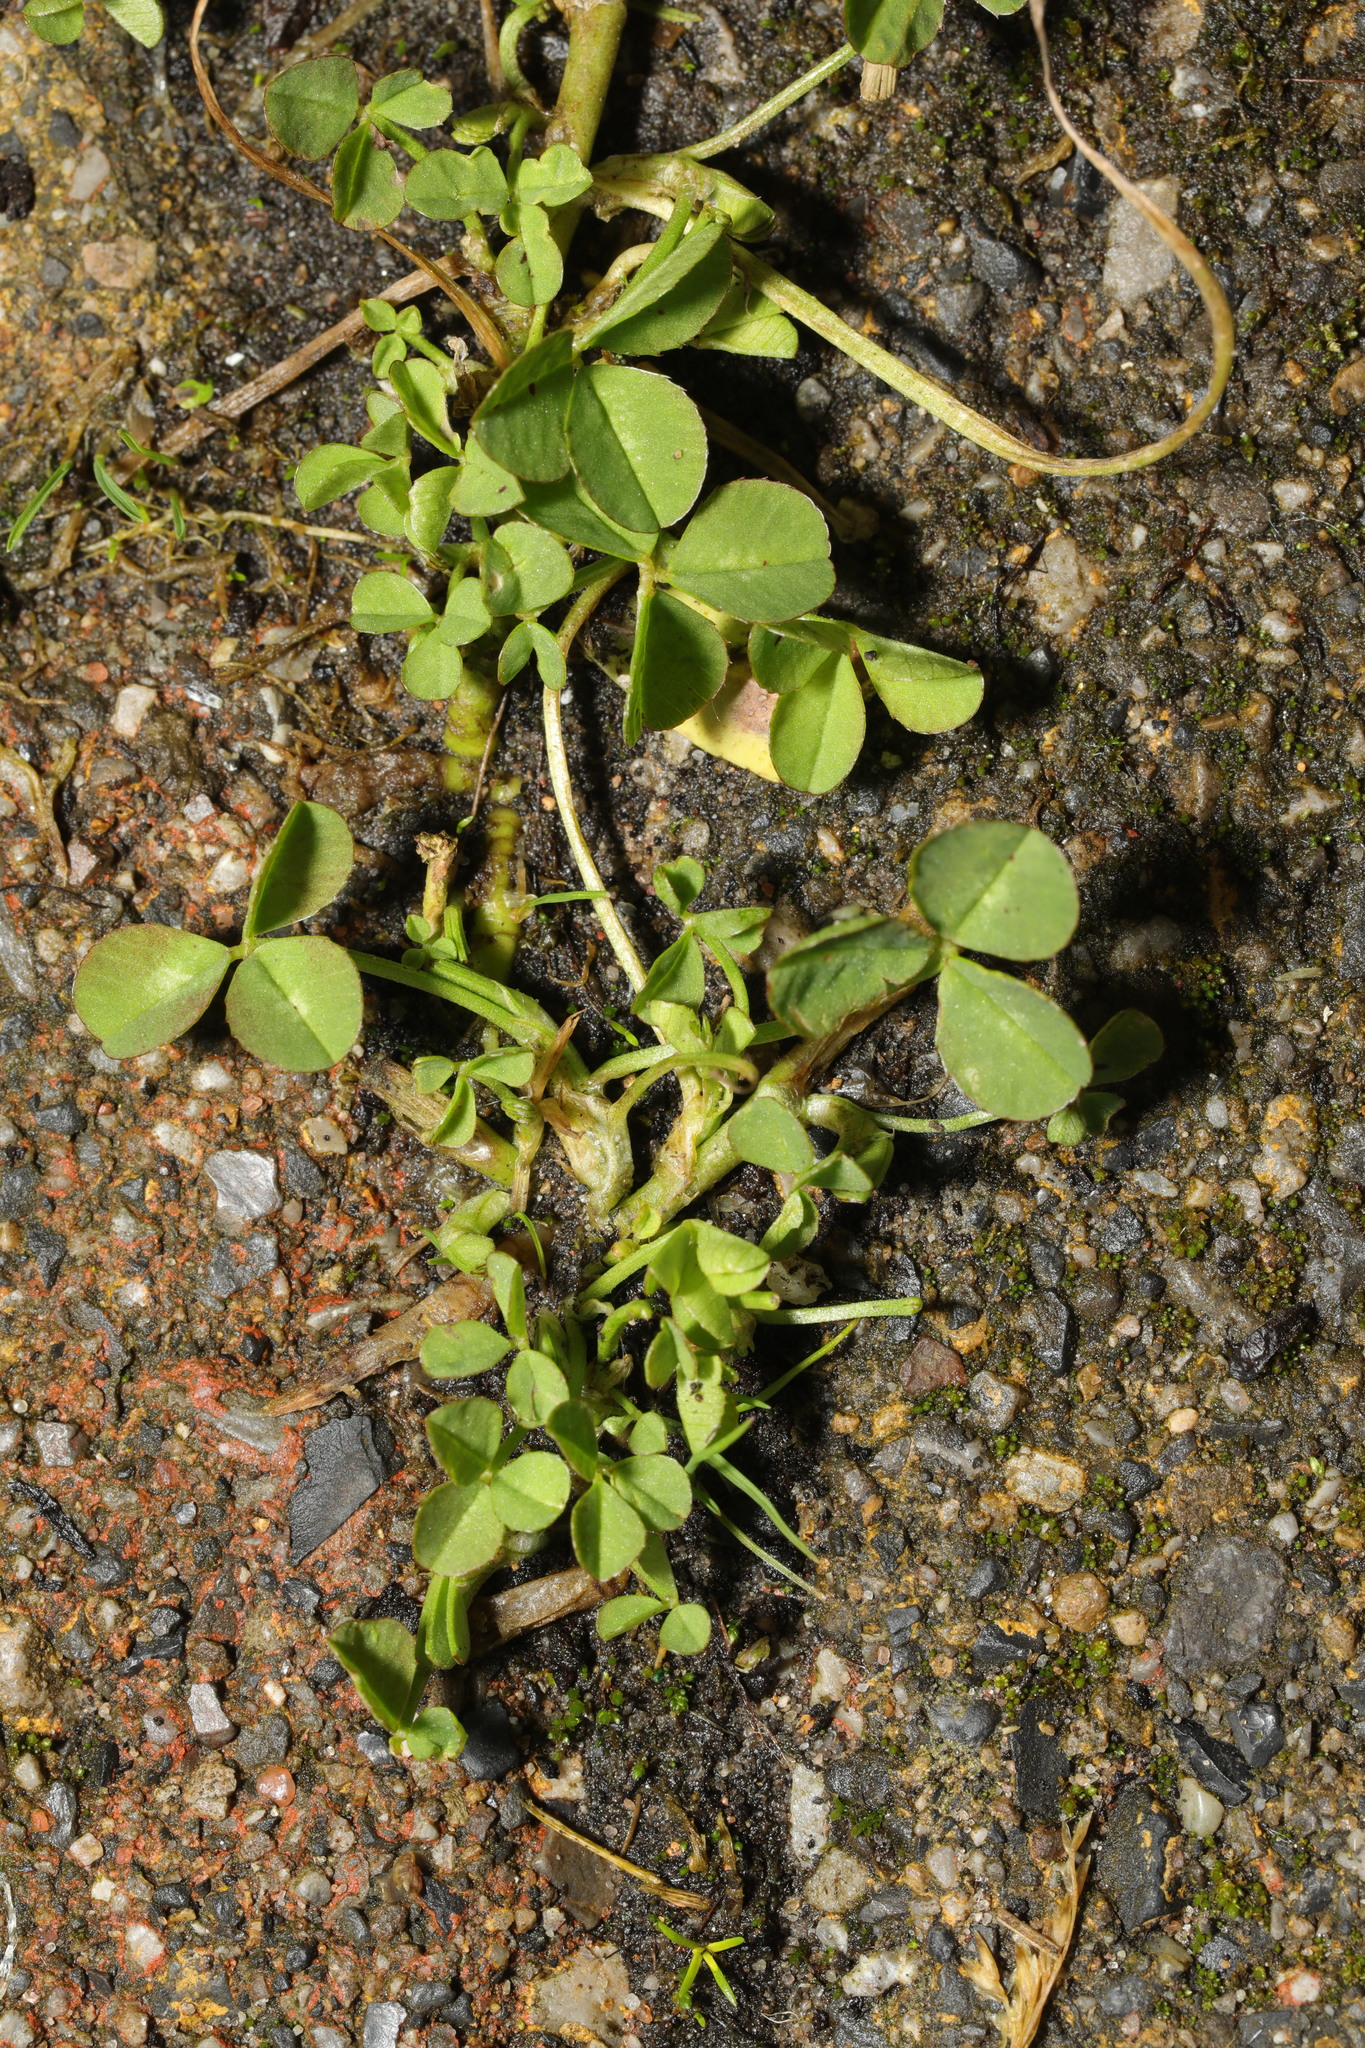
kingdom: Plantae
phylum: Tracheophyta
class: Magnoliopsida
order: Fabales
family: Fabaceae
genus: Trifolium
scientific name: Trifolium repens
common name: White clover
